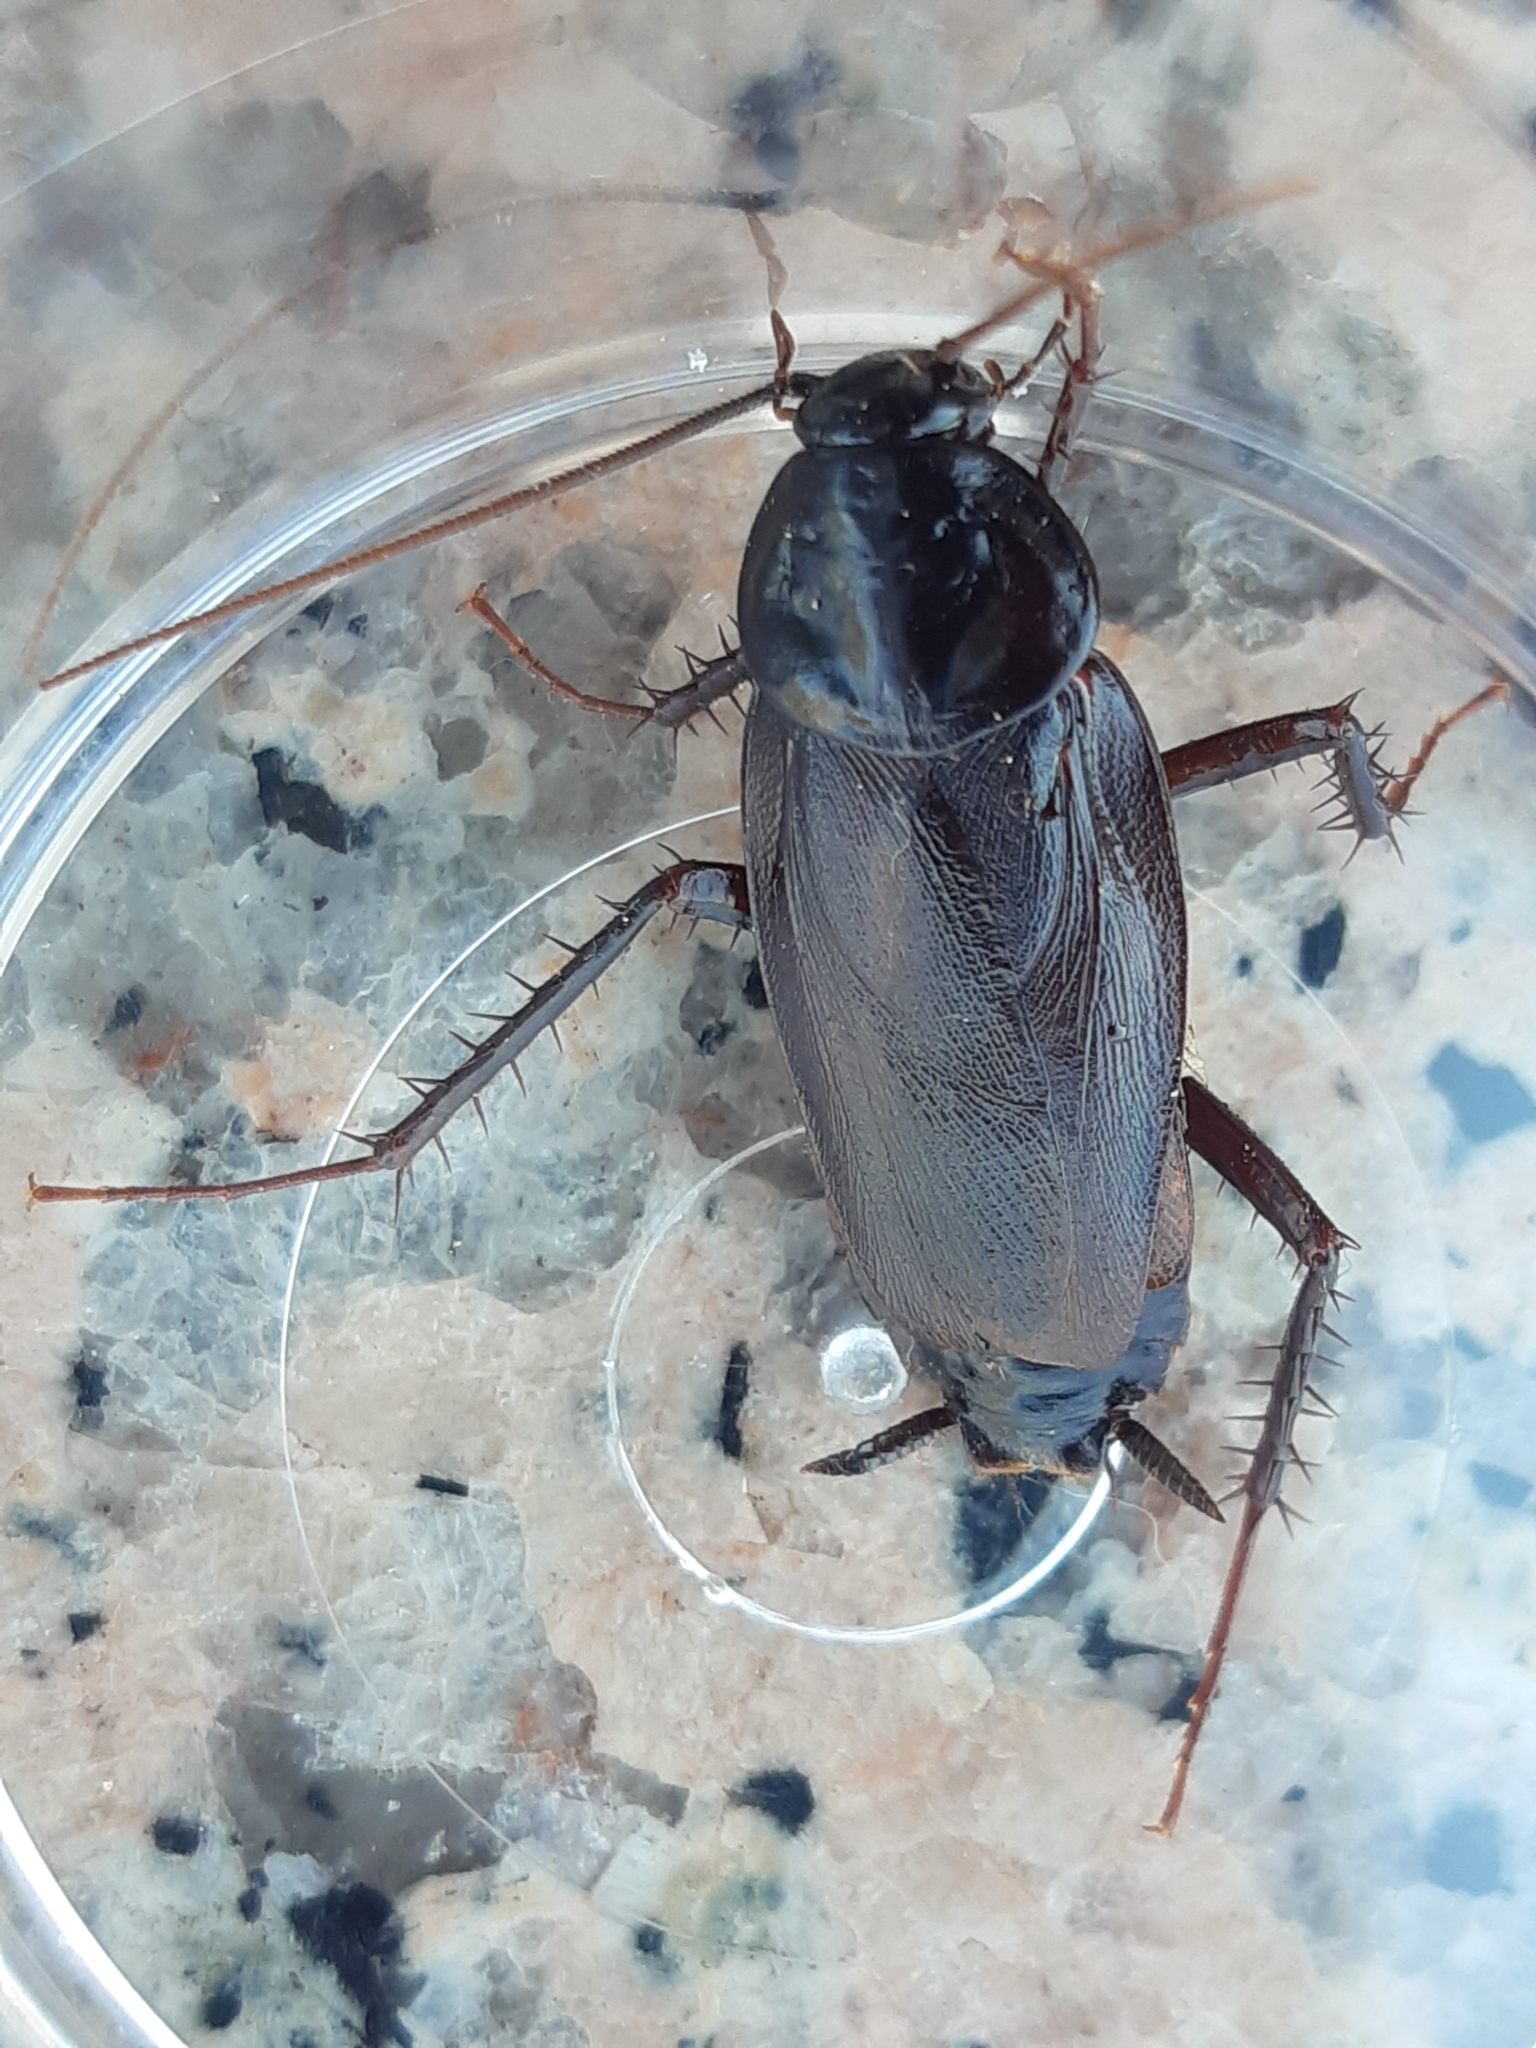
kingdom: Animalia
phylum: Arthropoda
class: Insecta
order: Blattodea
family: Blattidae
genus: Blatta
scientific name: Blatta orientalis
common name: Oriental cockroach
